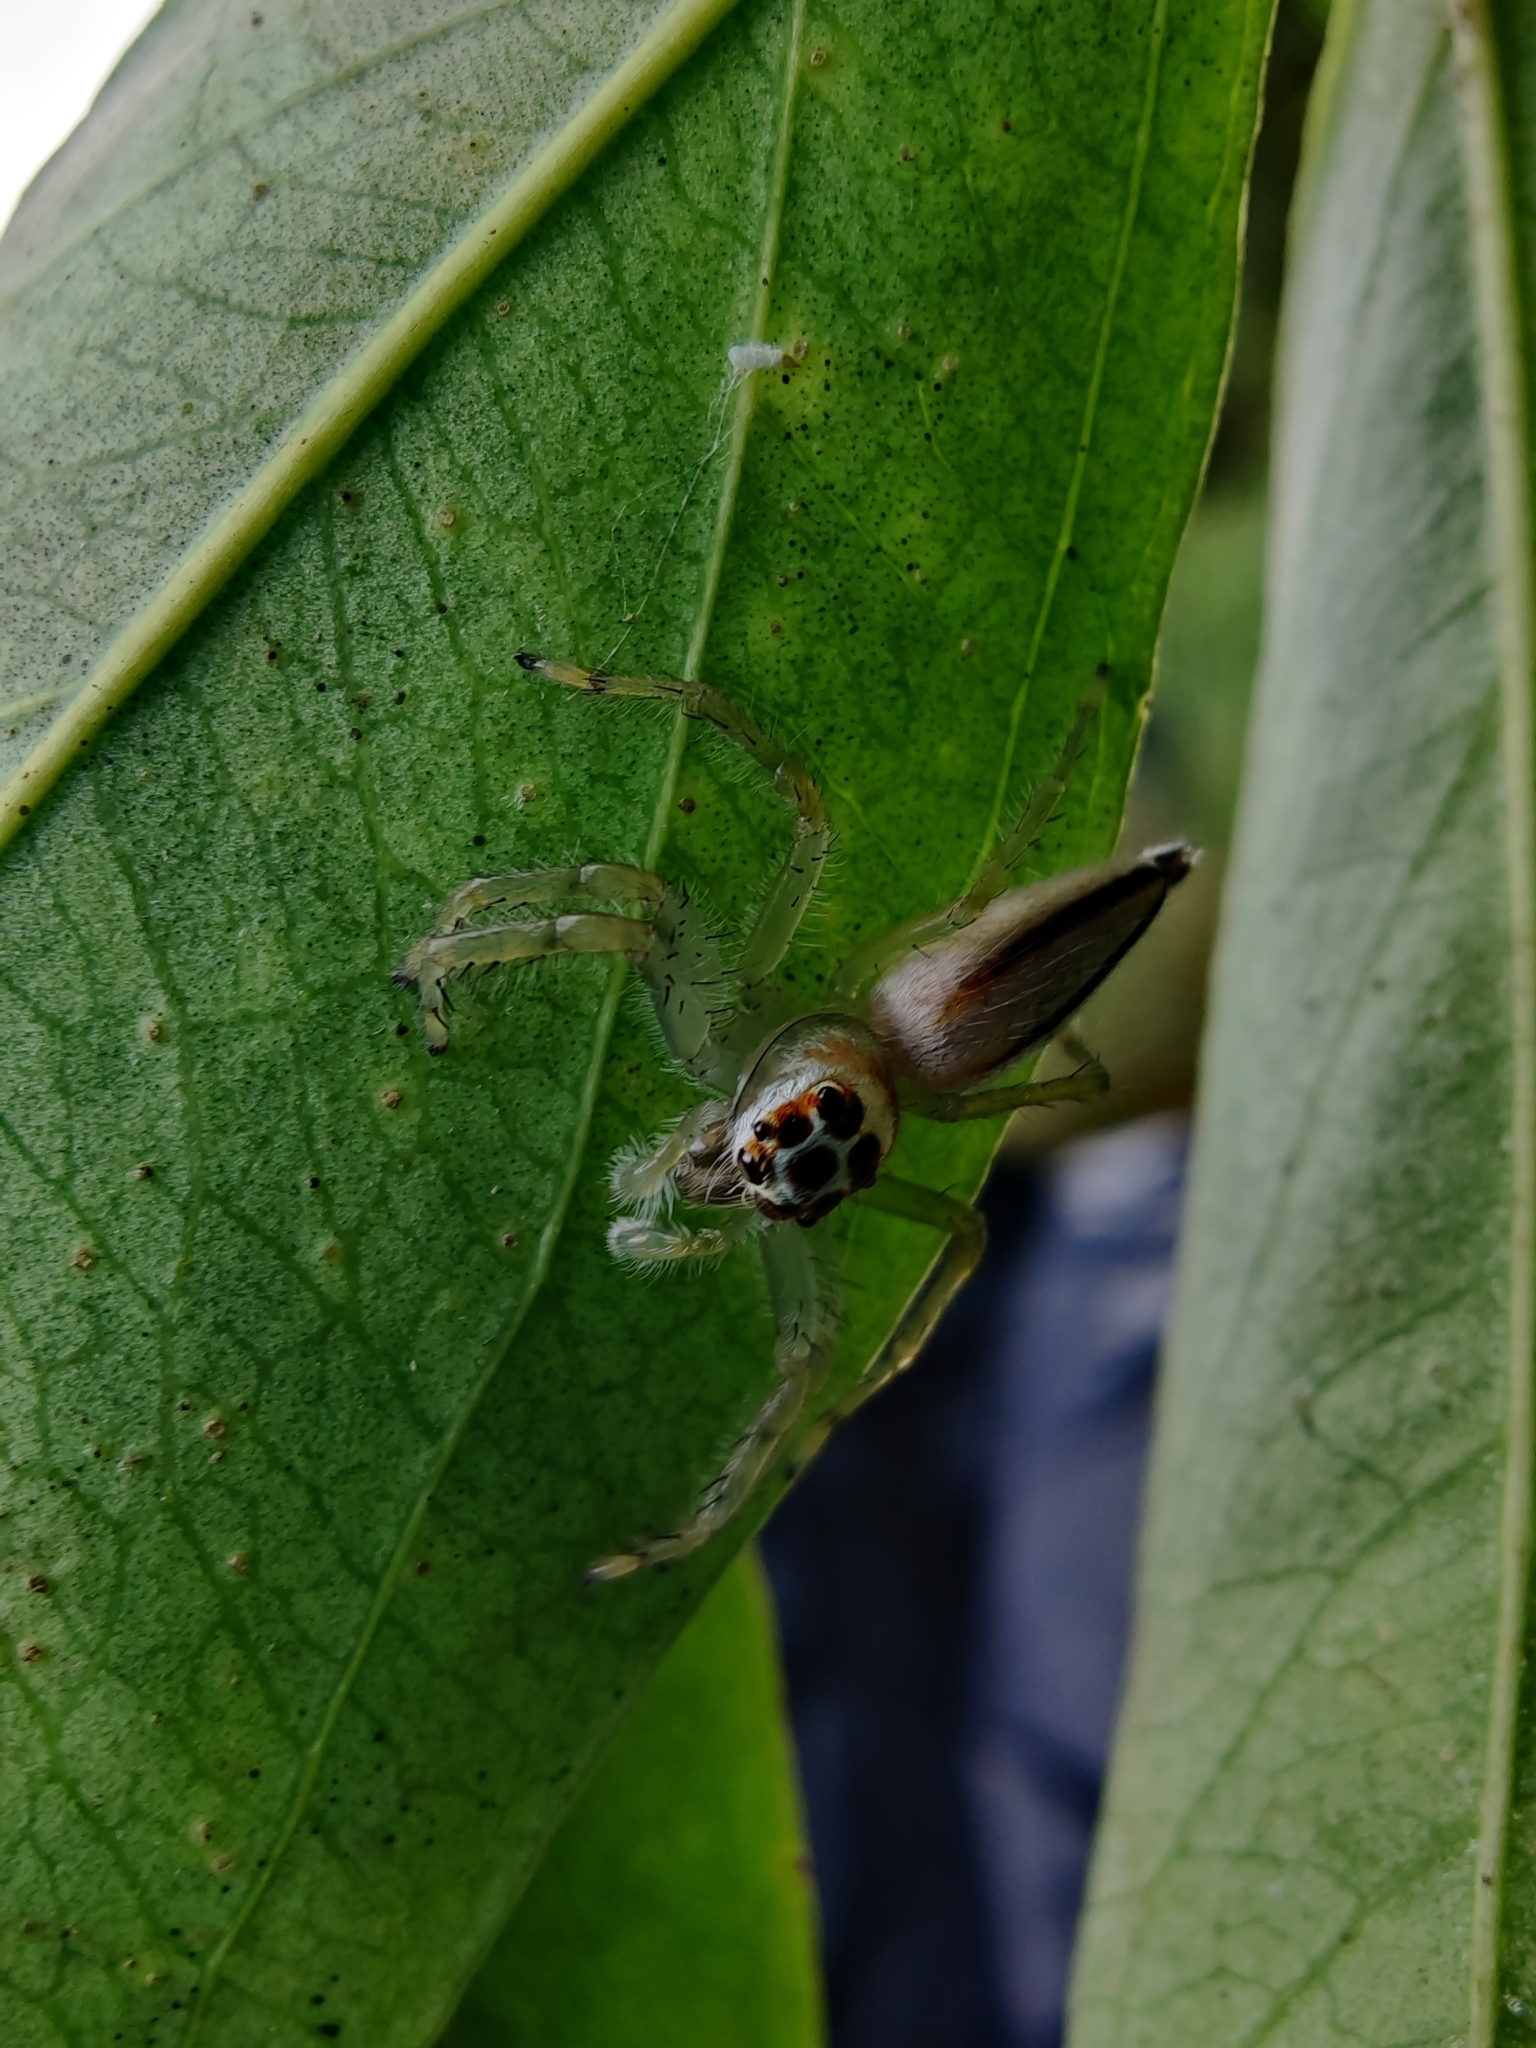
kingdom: Animalia
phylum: Arthropoda
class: Arachnida
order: Araneae
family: Salticidae
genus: Telamonia
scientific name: Telamonia dimidiata
